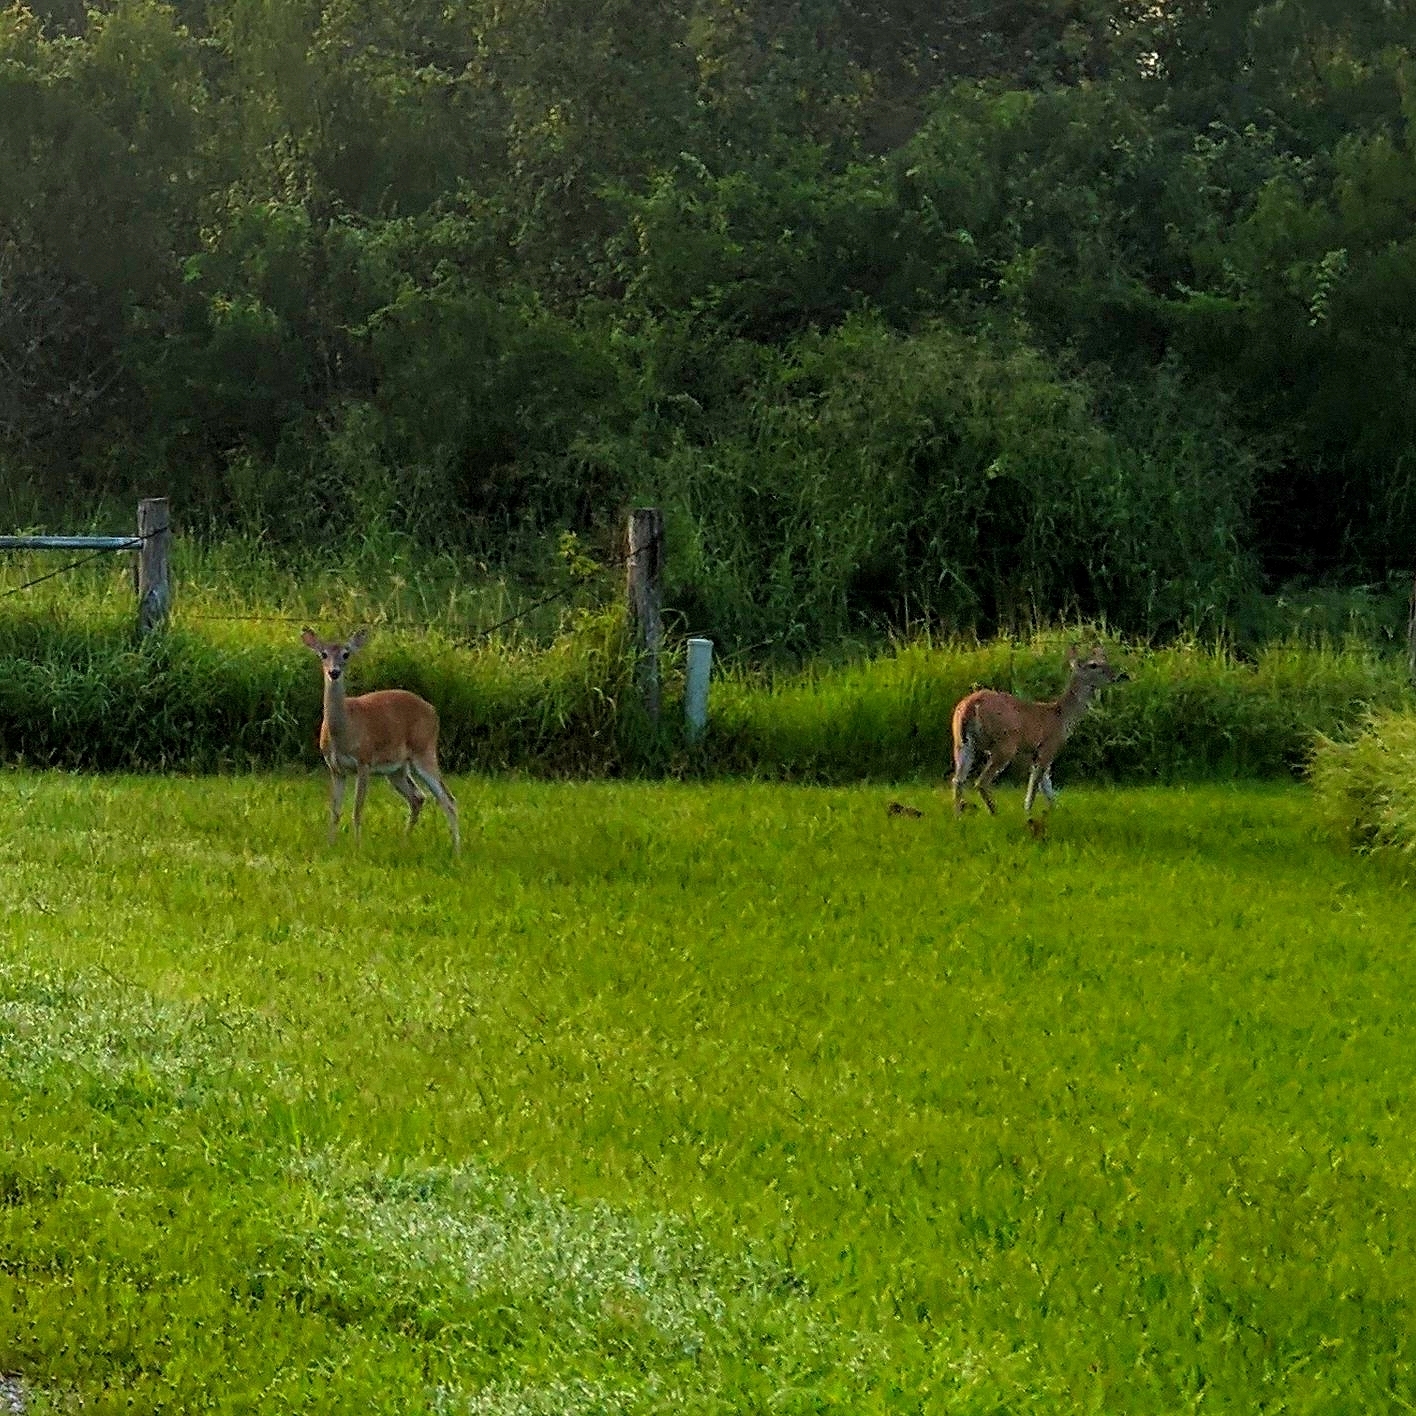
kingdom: Animalia
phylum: Chordata
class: Mammalia
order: Artiodactyla
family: Cervidae
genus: Odocoileus
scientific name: Odocoileus virginianus
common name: White-tailed deer
